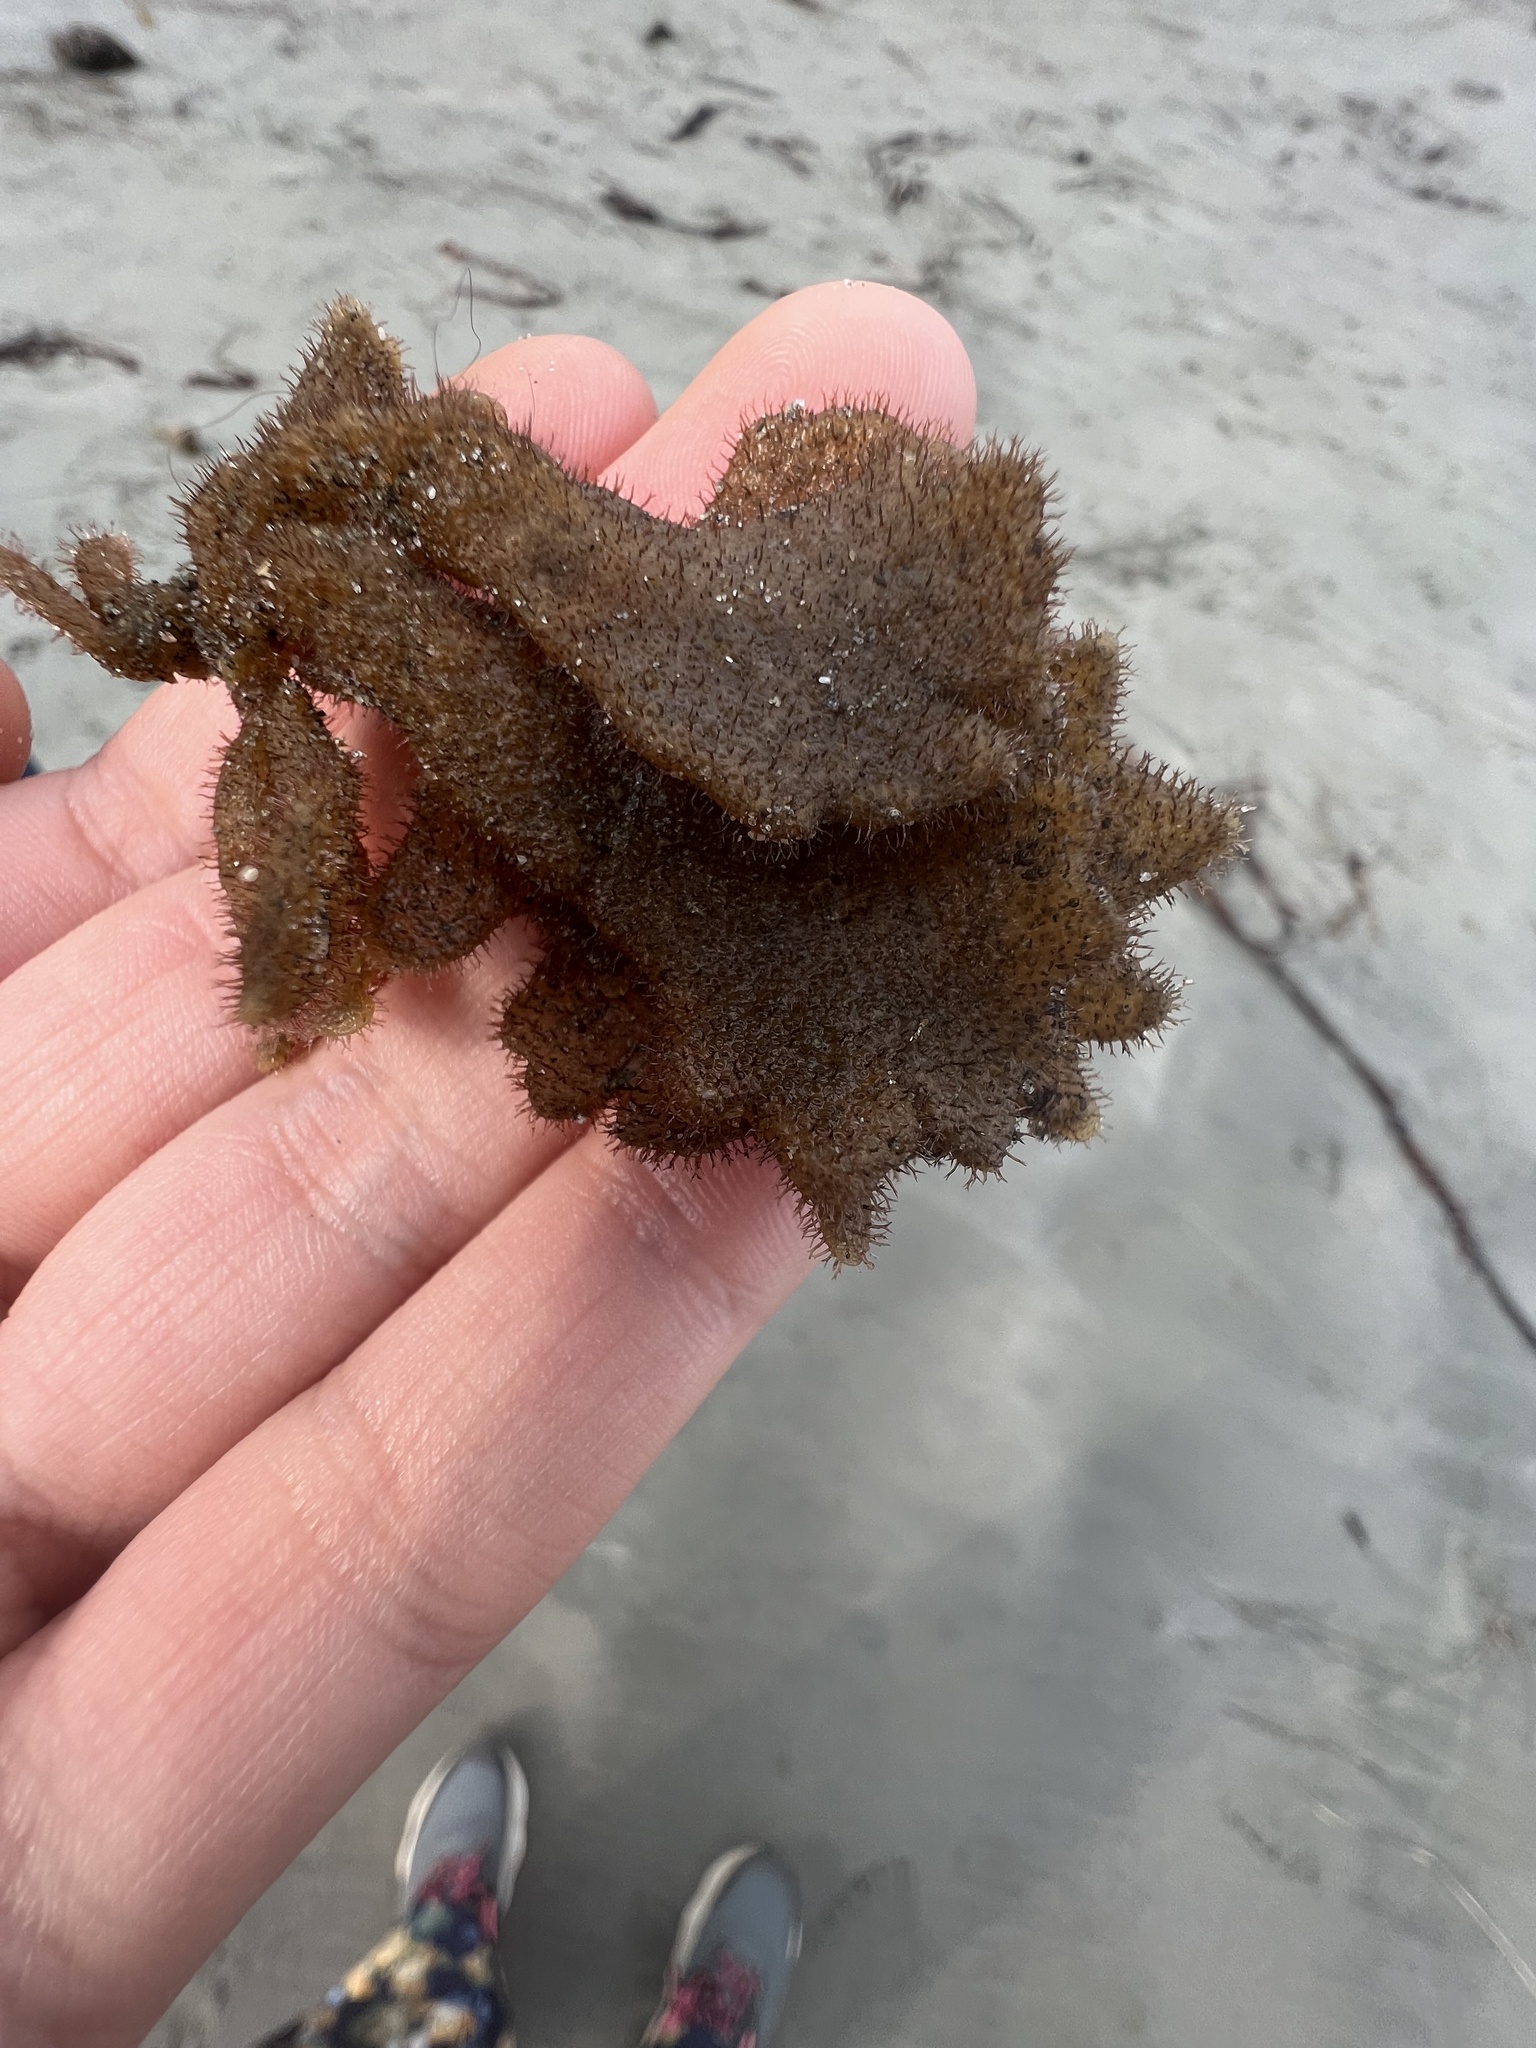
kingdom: Animalia
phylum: Bryozoa
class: Gymnolaemata
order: Ctenostomatida
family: Flustrellidridae
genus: Flustrellidra
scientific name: Flustrellidra corniculata
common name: Spiny leather bryozoan
